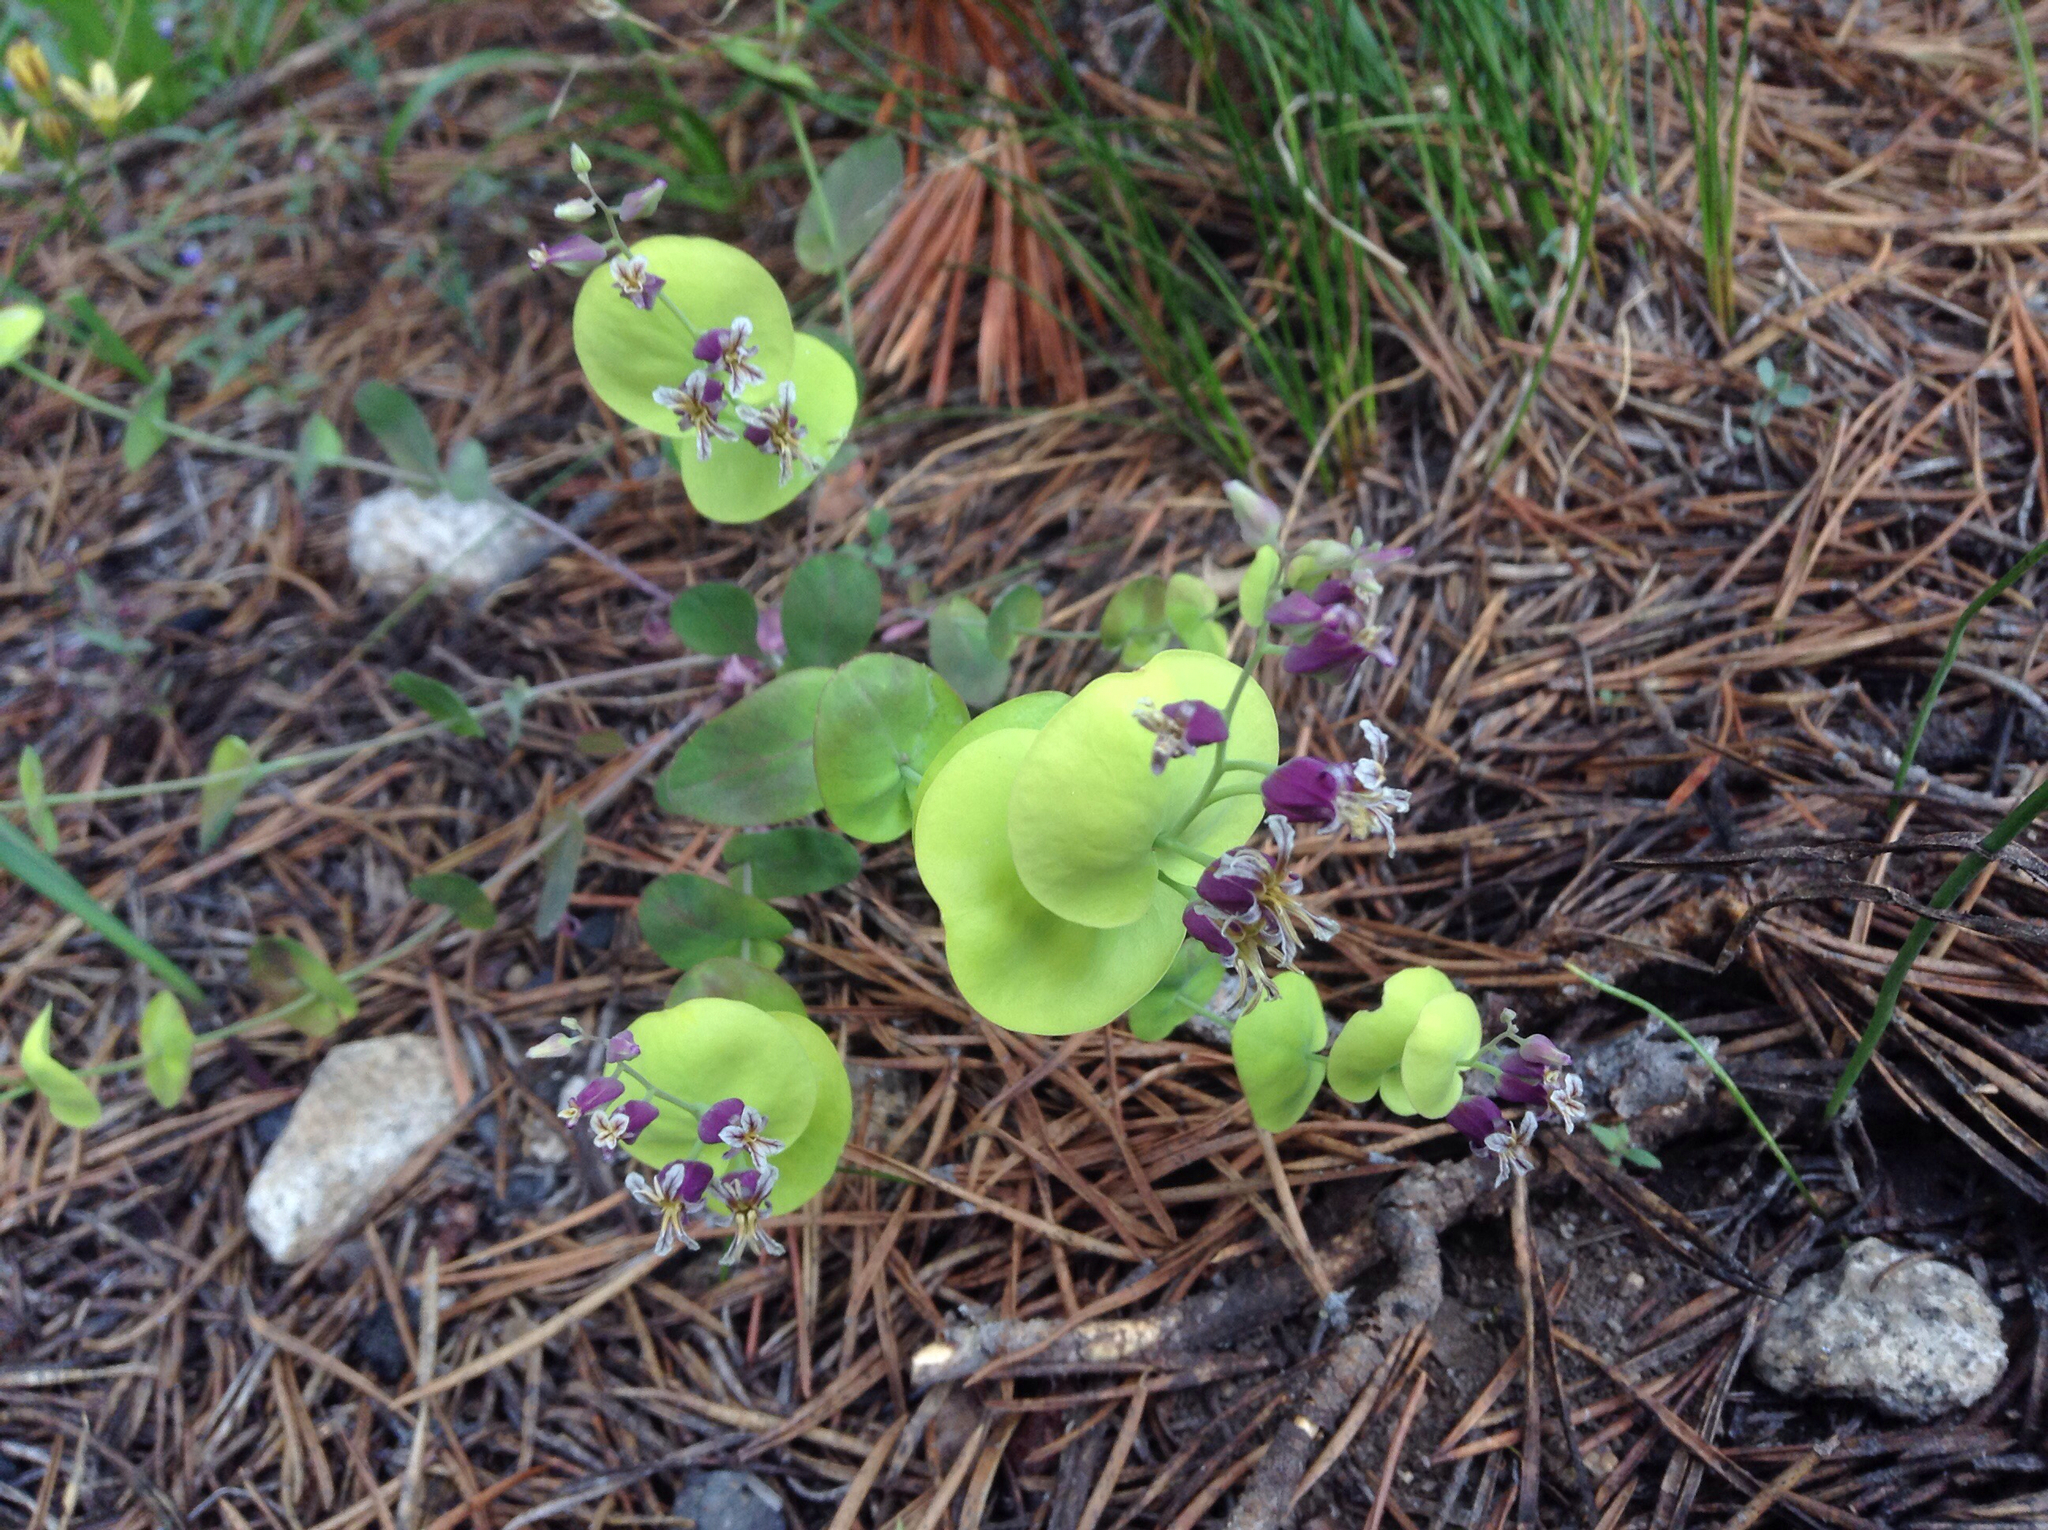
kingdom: Plantae
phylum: Tracheophyta
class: Magnoliopsida
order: Brassicales
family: Brassicaceae
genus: Streptanthus
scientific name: Streptanthus tortuosus
